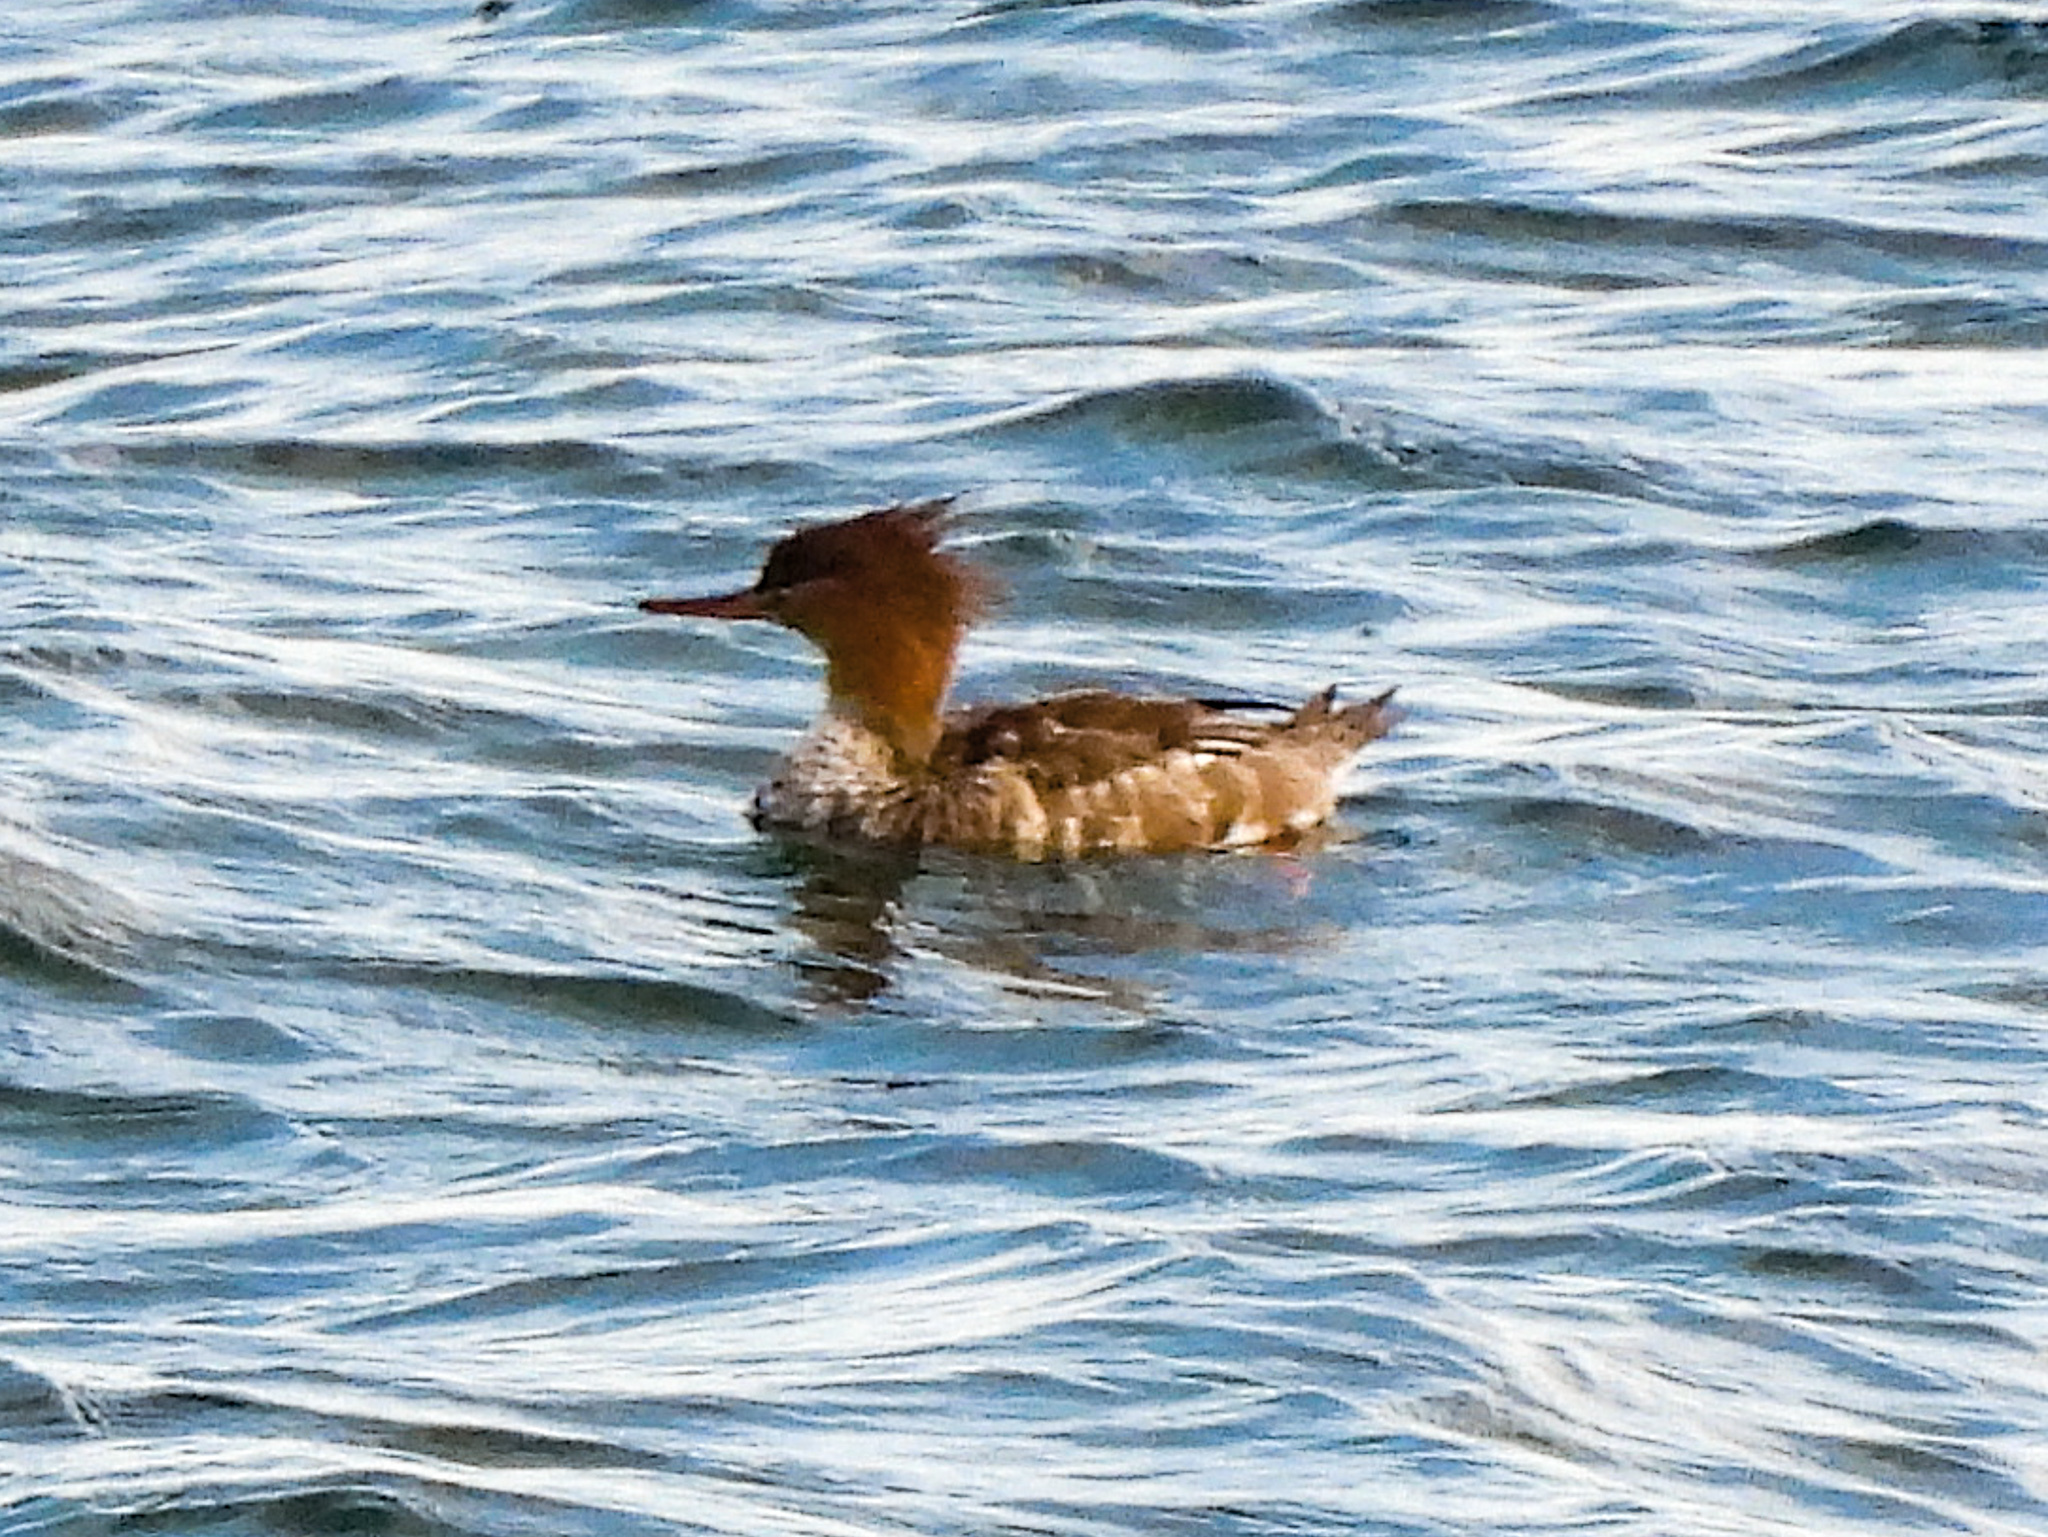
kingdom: Animalia
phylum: Chordata
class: Aves
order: Anseriformes
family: Anatidae
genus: Mergus
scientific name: Mergus serrator
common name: Red-breasted merganser
